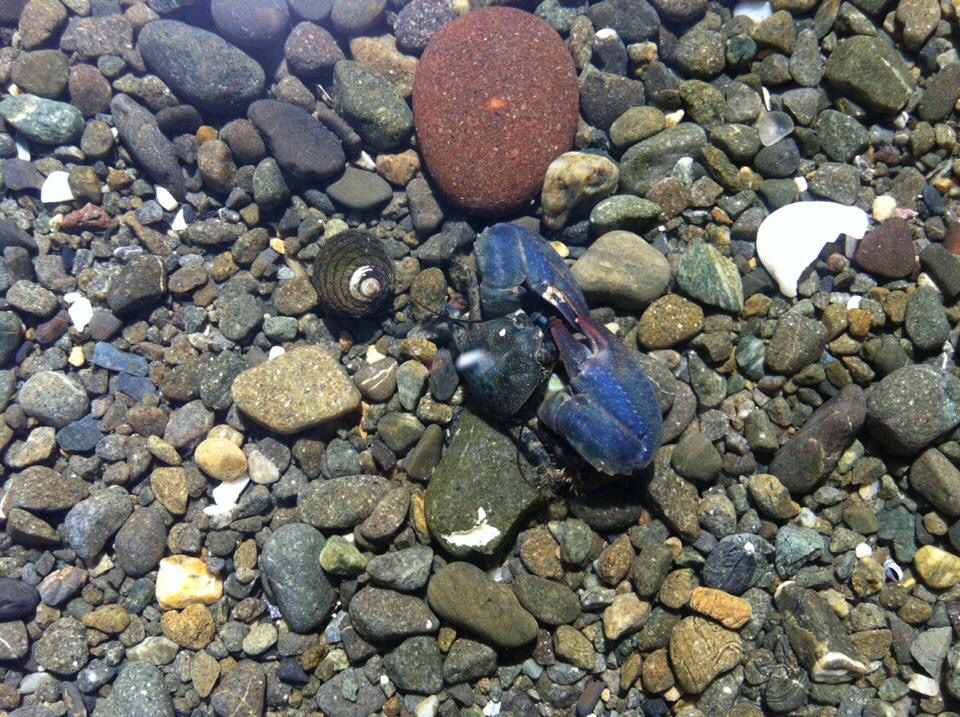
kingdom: Animalia
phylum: Arthropoda
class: Malacostraca
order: Decapoda
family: Porcellanidae
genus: Petrolisthes
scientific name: Petrolisthes elongatus
